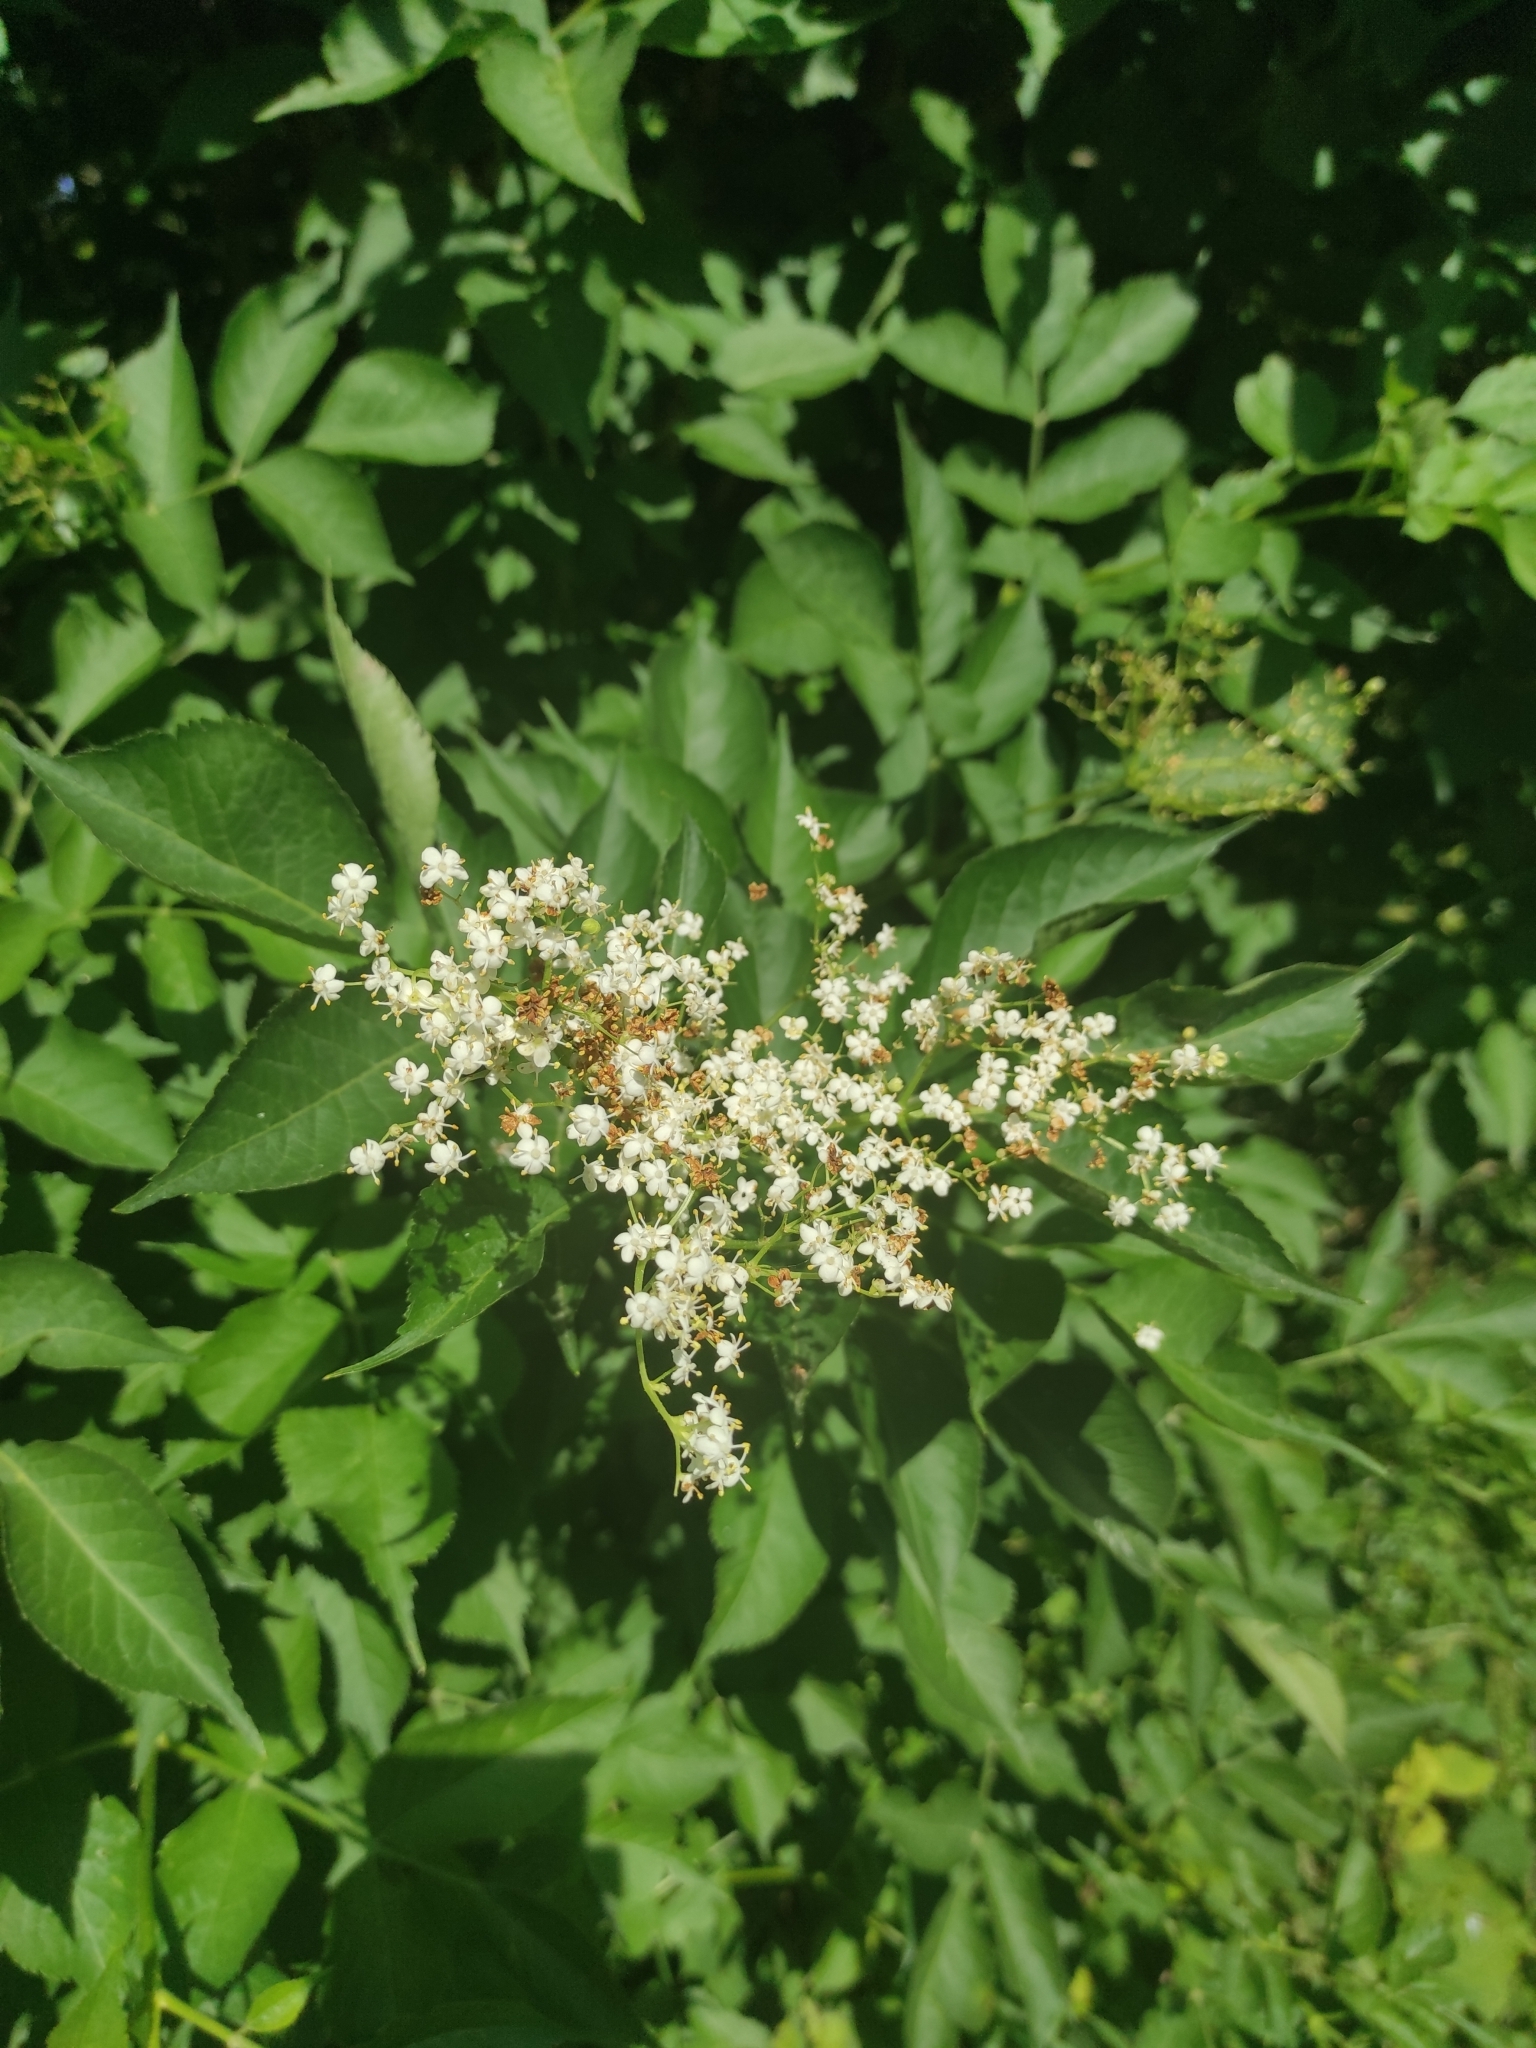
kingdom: Plantae
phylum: Tracheophyta
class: Magnoliopsida
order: Dipsacales
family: Viburnaceae
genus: Sambucus
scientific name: Sambucus nigra
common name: Elder
